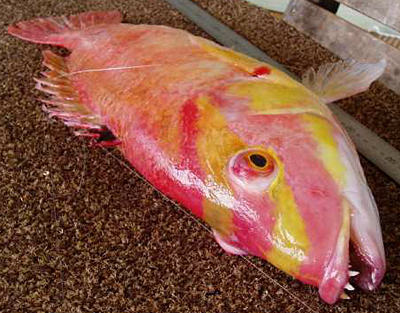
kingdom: Animalia
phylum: Chordata
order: Perciformes
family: Labridae
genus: Bodianus
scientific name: Bodianus flavifrons
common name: Masked pigfish
